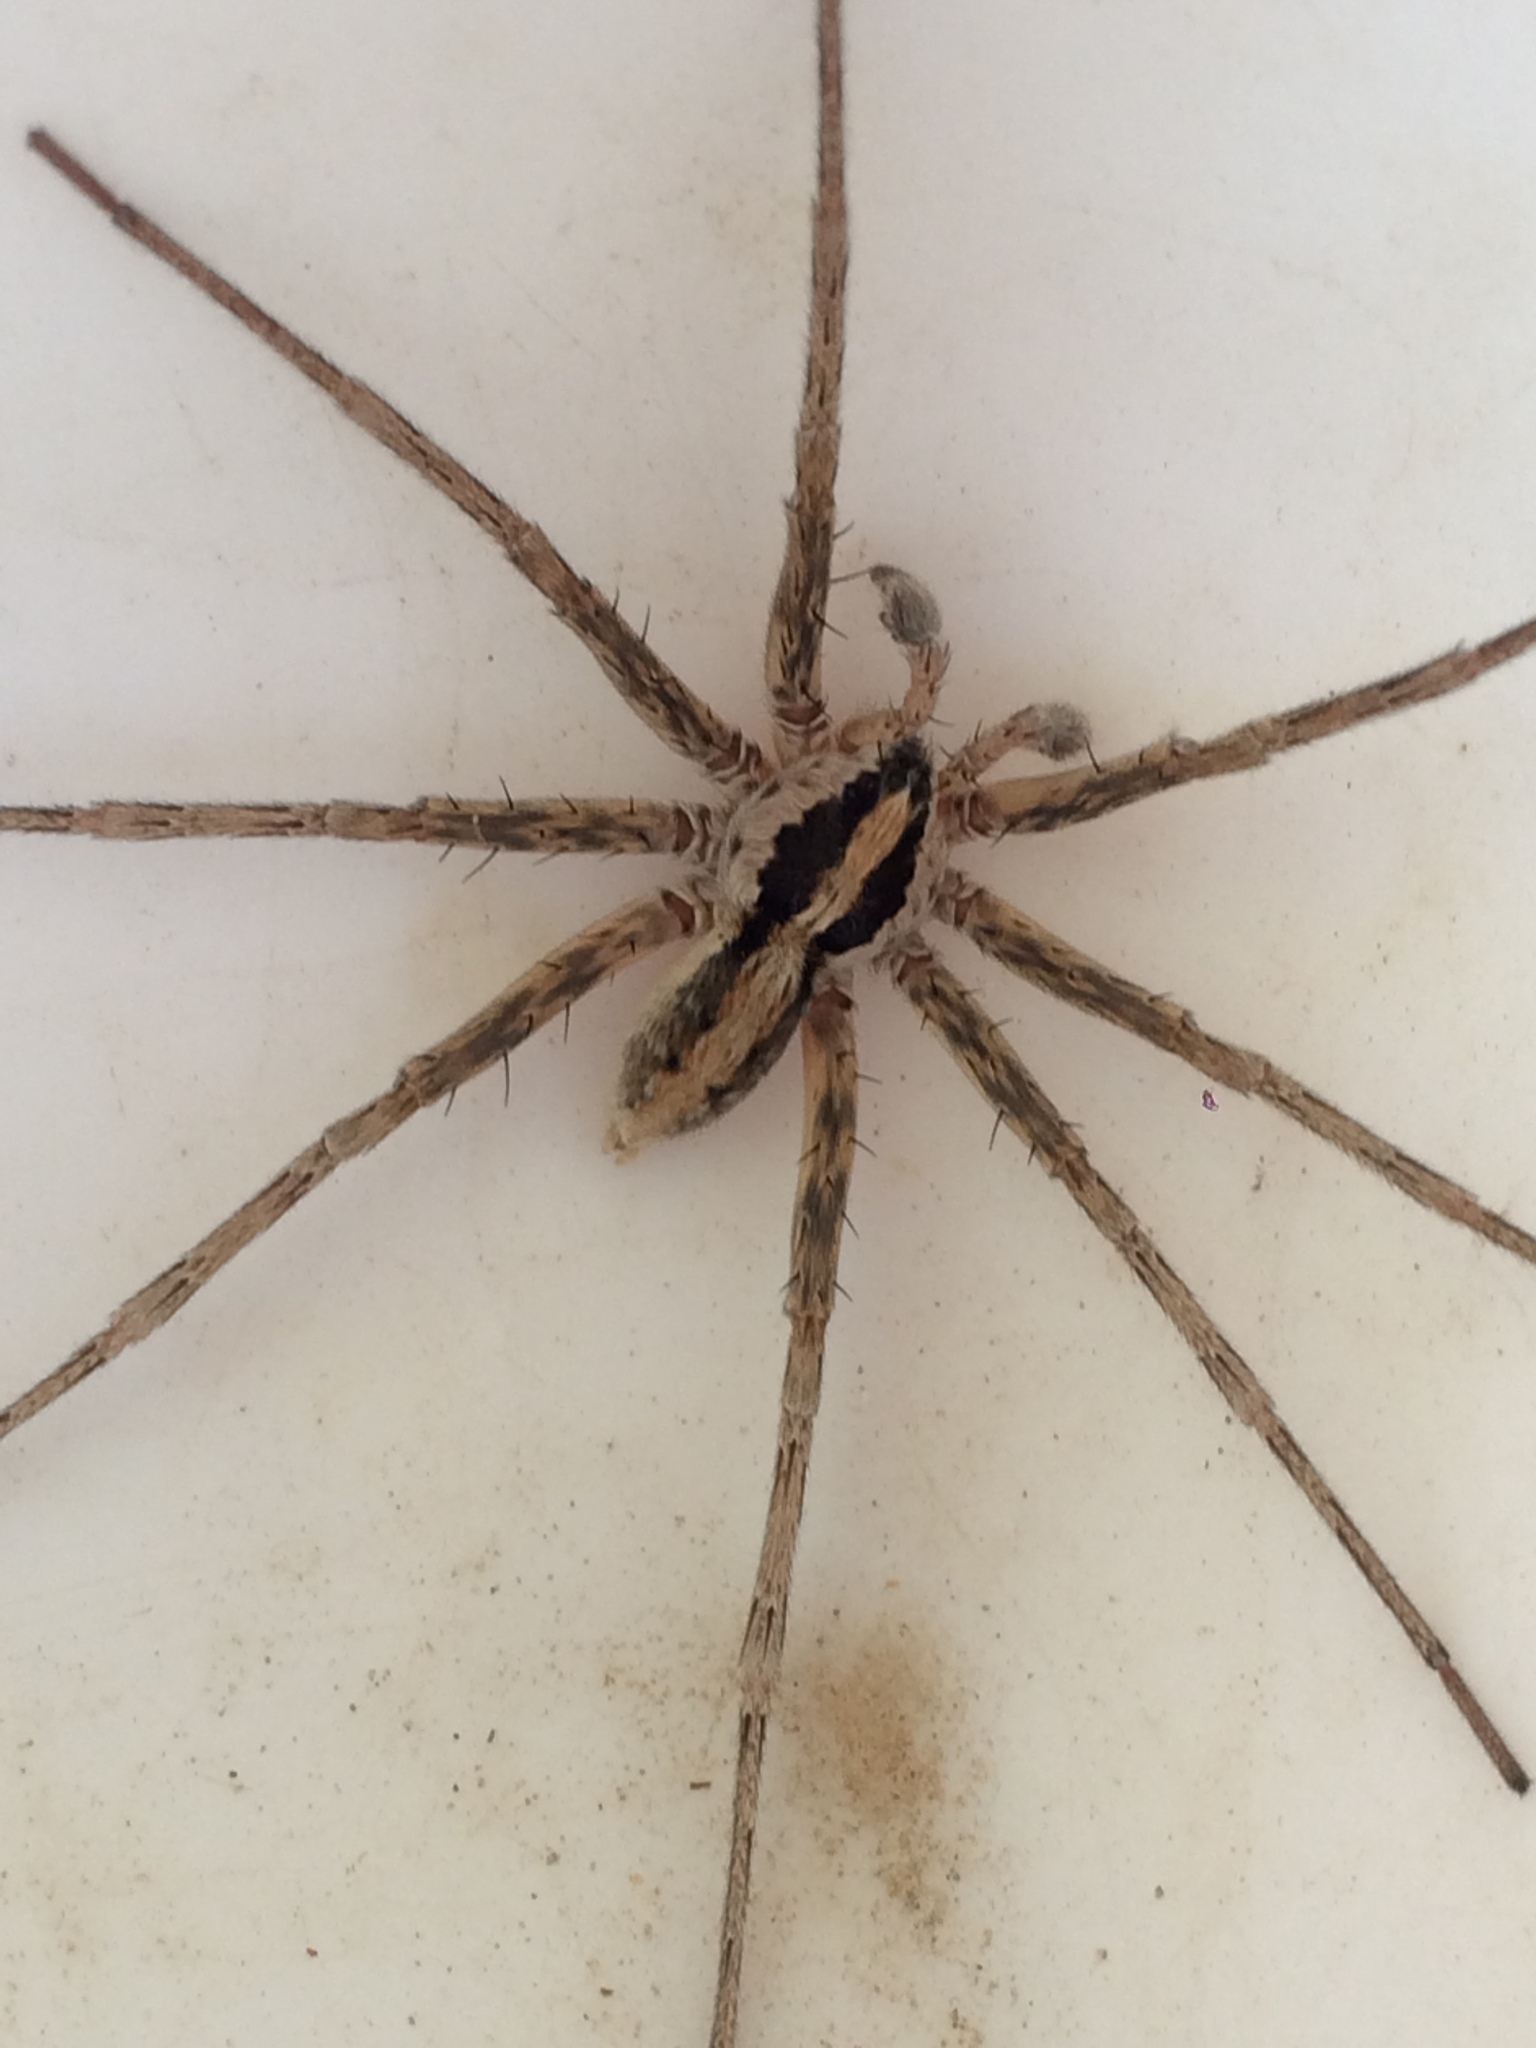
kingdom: Animalia
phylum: Arthropoda
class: Arachnida
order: Araneae
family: Xenoctenidae
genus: Xenoctenus
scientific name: Xenoctenus
